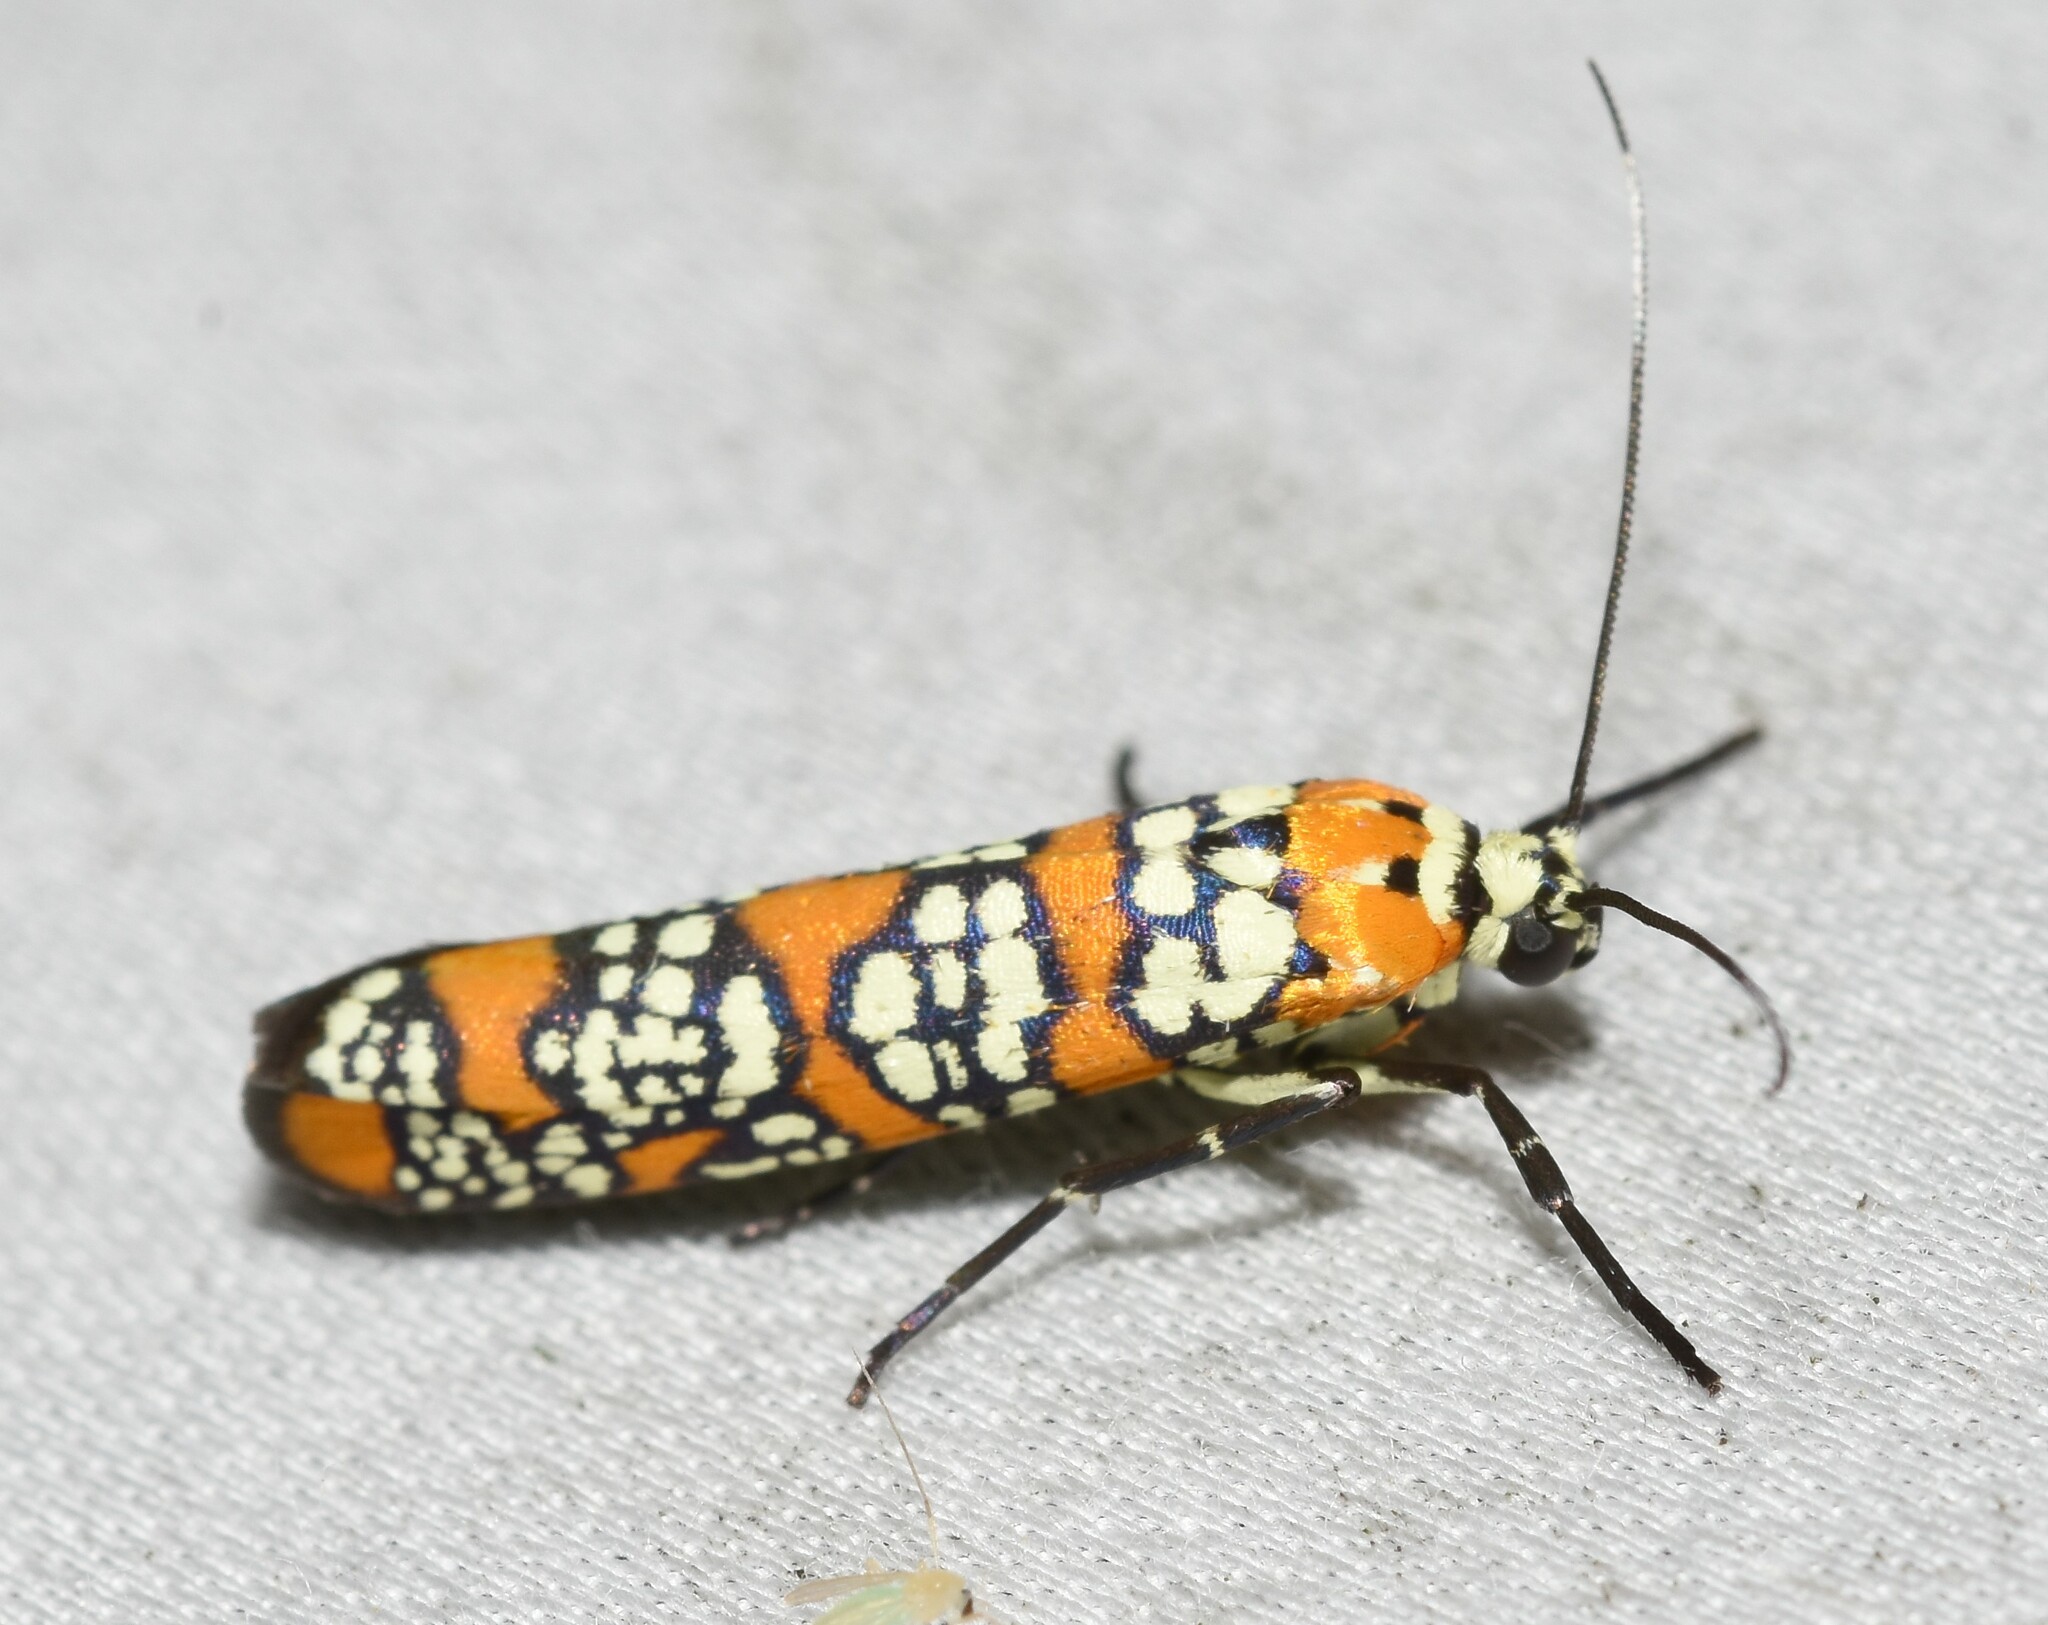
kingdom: Animalia
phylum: Arthropoda
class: Insecta
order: Lepidoptera
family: Attevidae
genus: Atteva
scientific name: Atteva punctella
